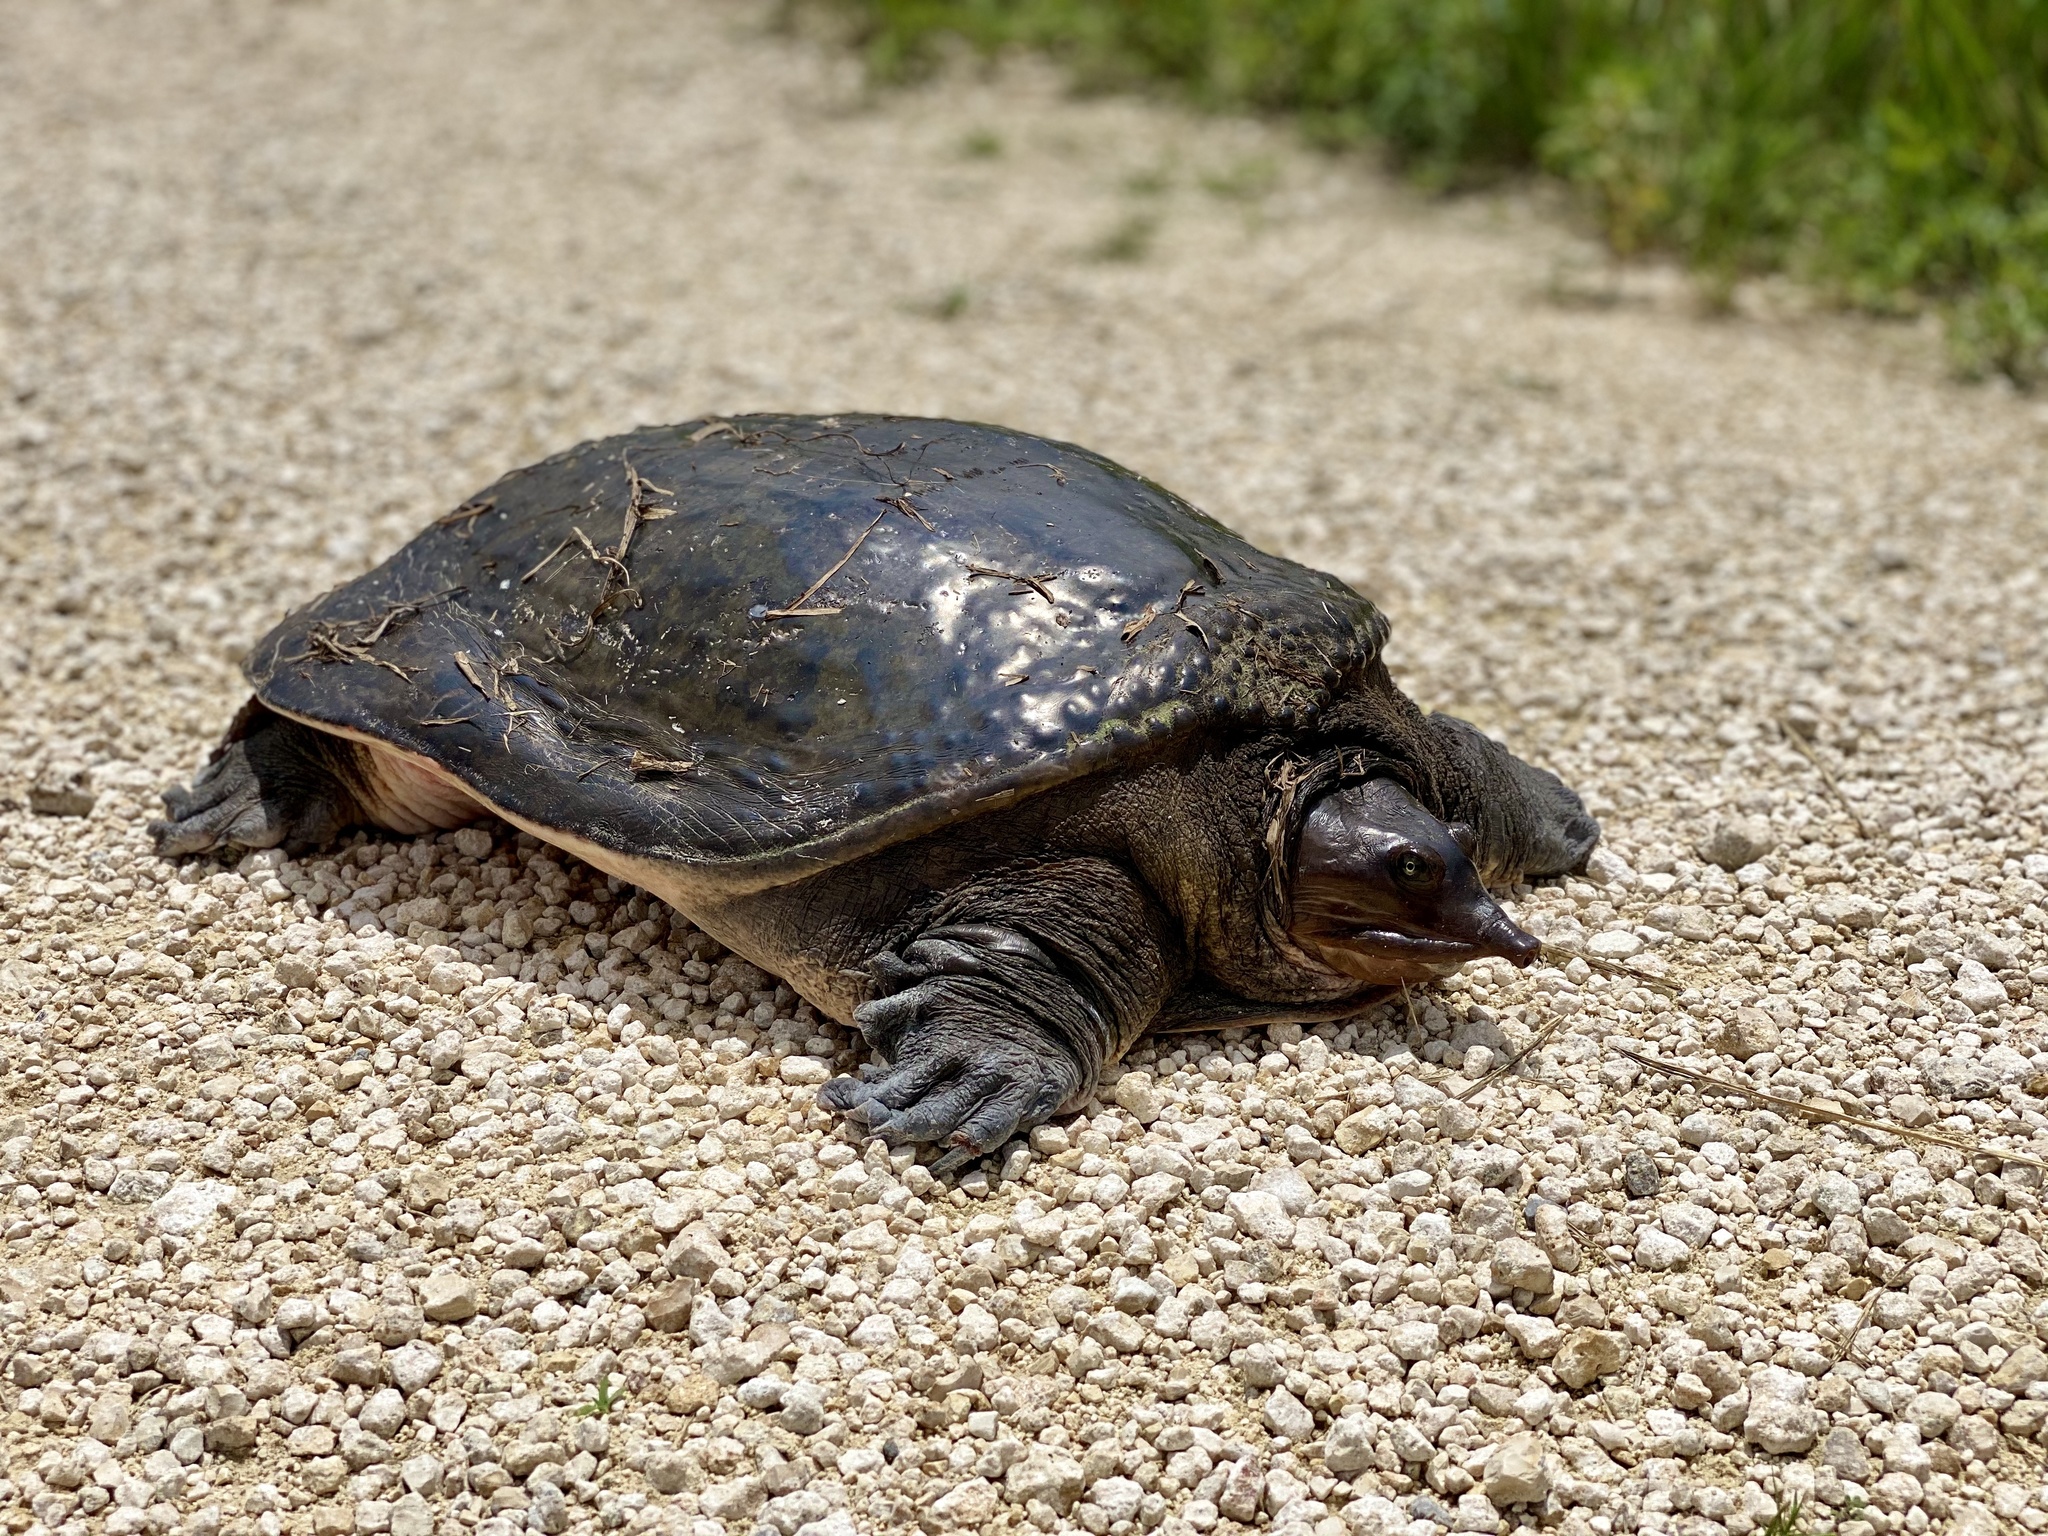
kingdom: Animalia
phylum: Chordata
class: Testudines
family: Trionychidae
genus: Apalone
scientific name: Apalone ferox
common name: Florida softshell turtle
